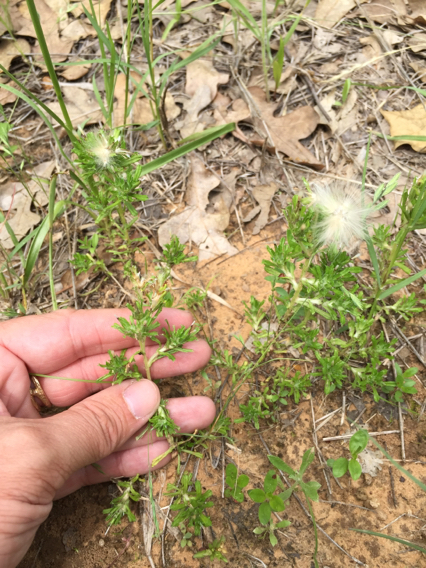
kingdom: Plantae
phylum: Tracheophyta
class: Magnoliopsida
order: Asterales
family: Asteraceae
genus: Facelis
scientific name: Facelis retusa
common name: Annual trampweed
